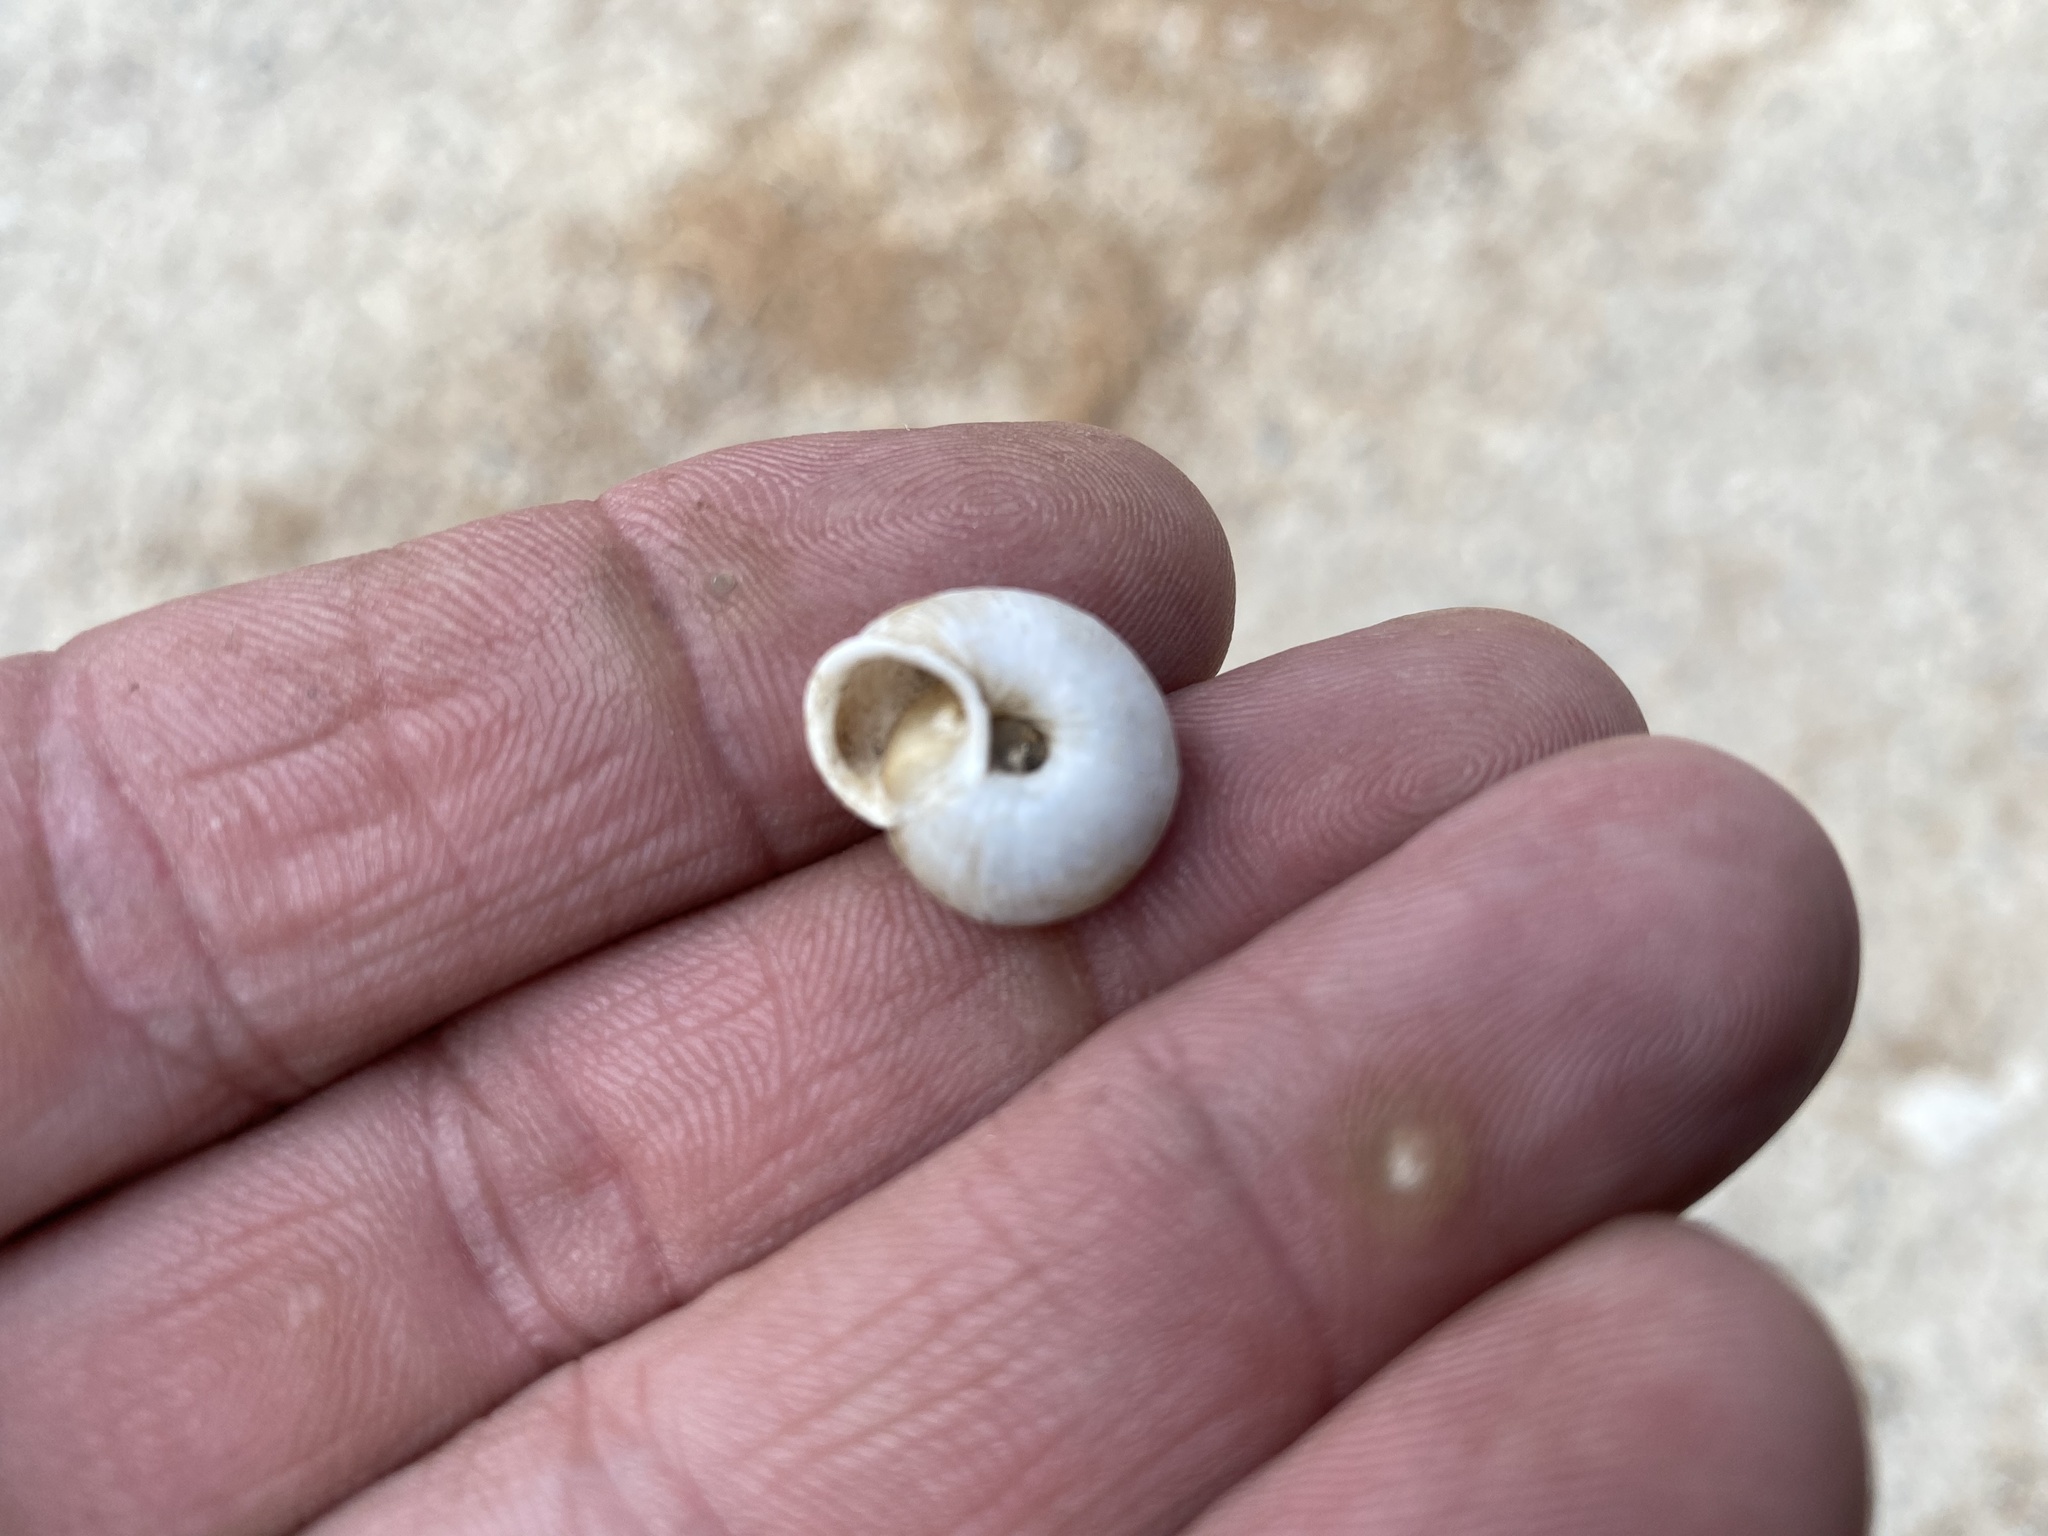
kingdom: Animalia
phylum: Mollusca
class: Gastropoda
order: Stylommatophora
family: Polygyridae
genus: Ashmunella
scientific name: Ashmunella rhyssa
